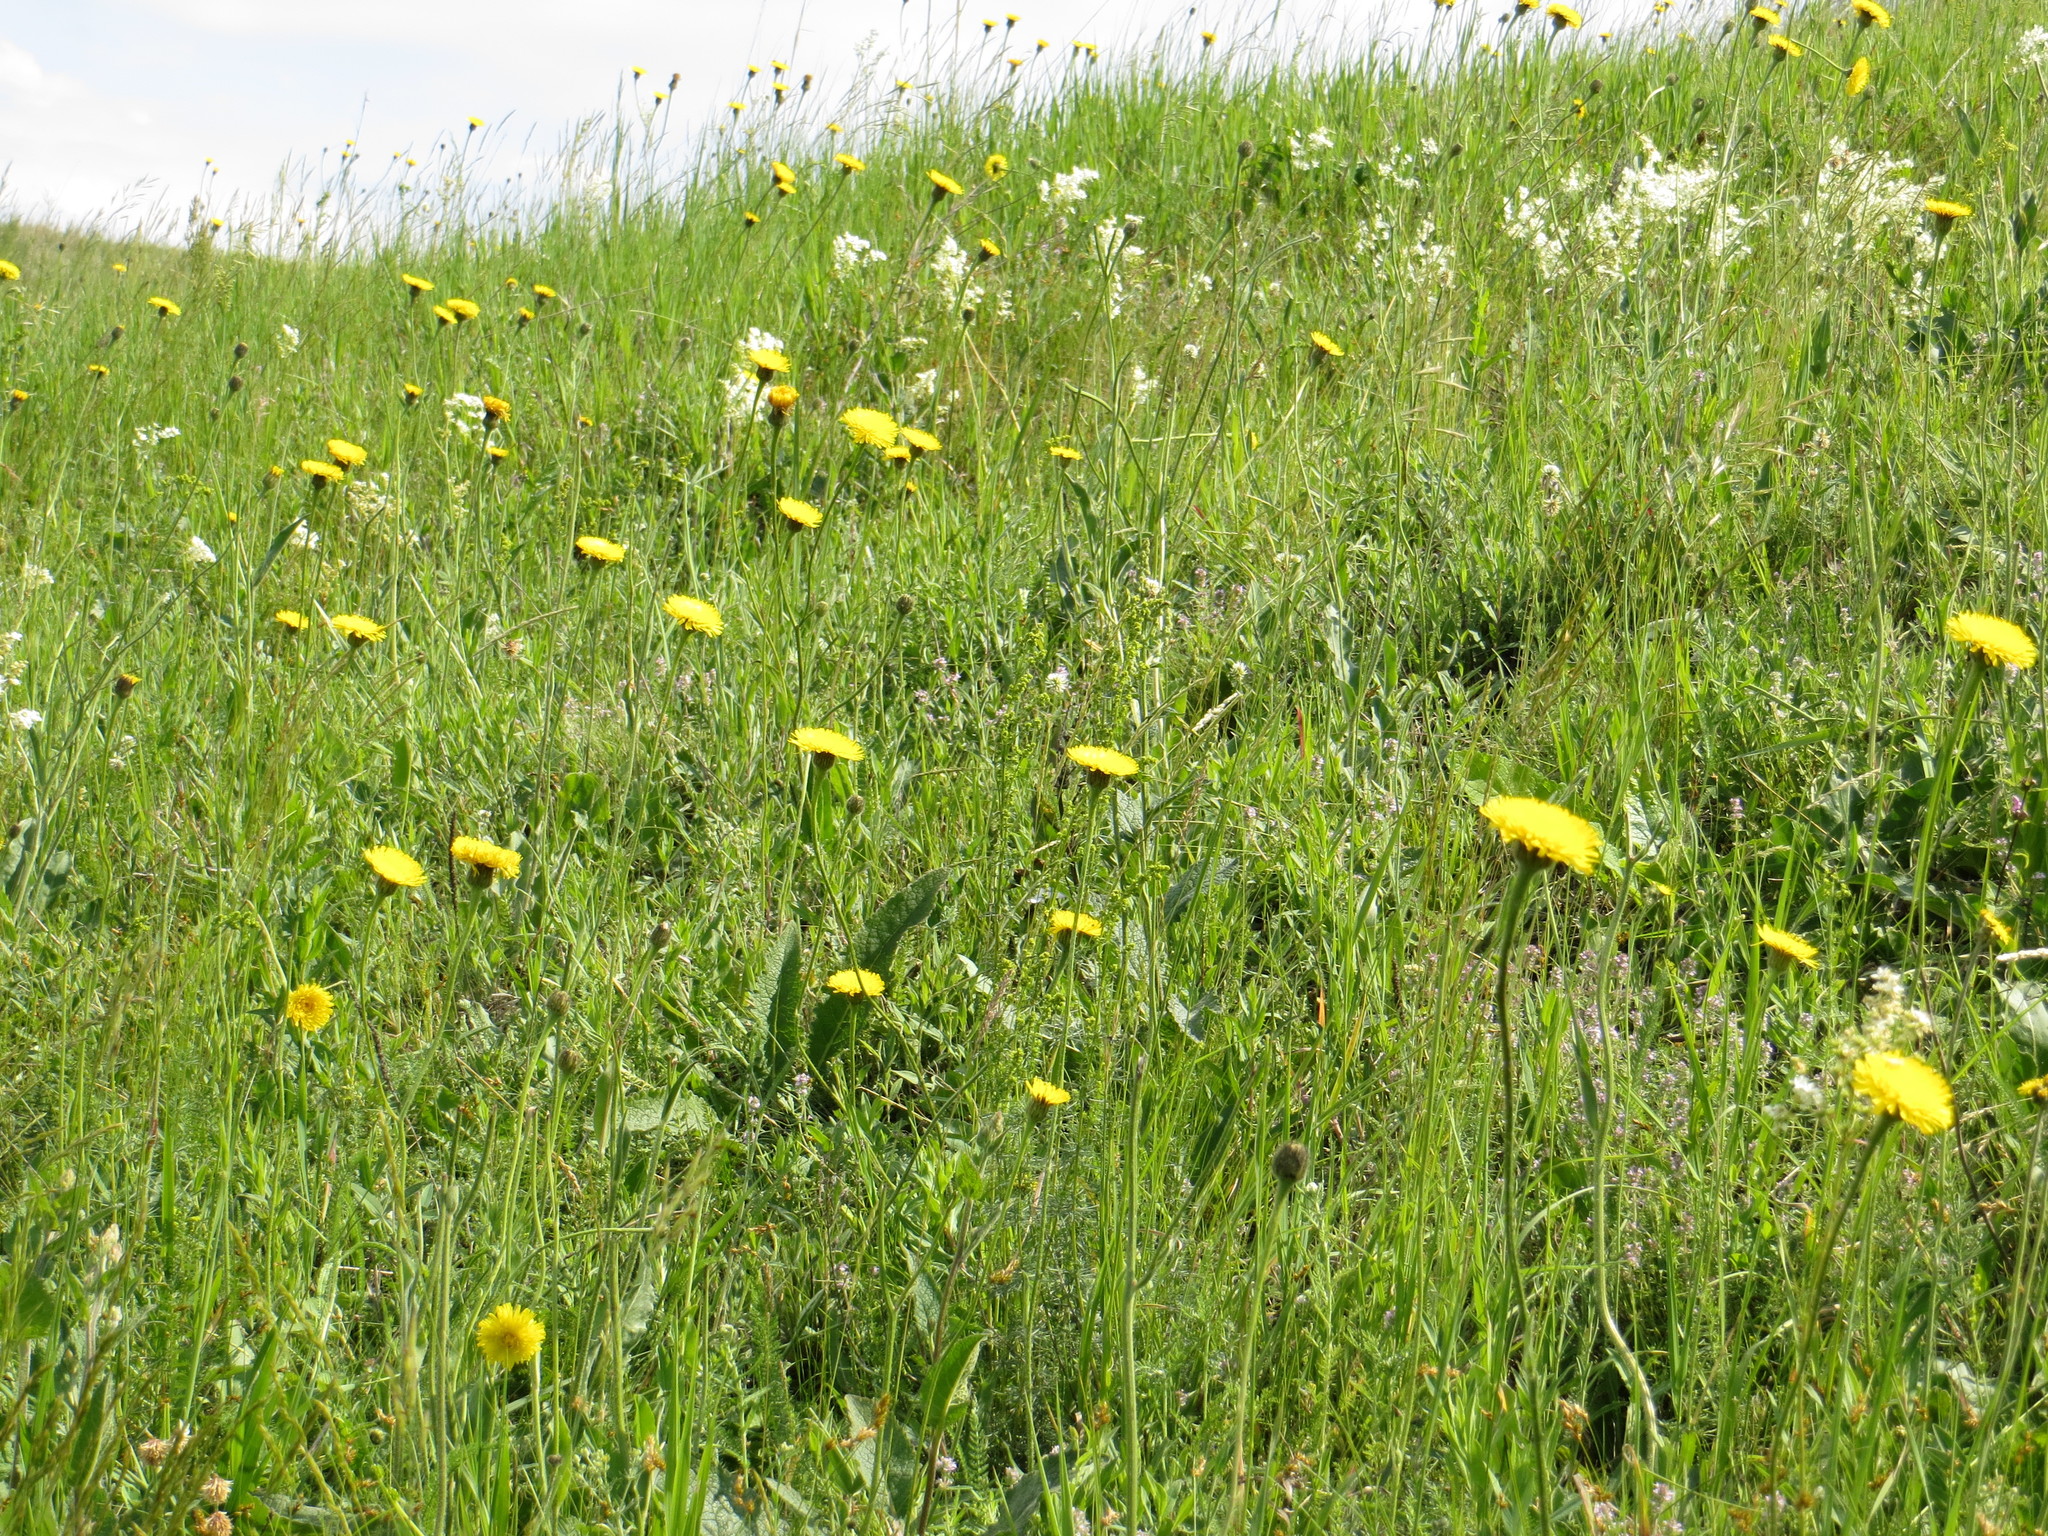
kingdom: Plantae
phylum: Tracheophyta
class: Magnoliopsida
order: Asterales
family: Asteraceae
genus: Trommsdorffia
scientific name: Trommsdorffia maculata
